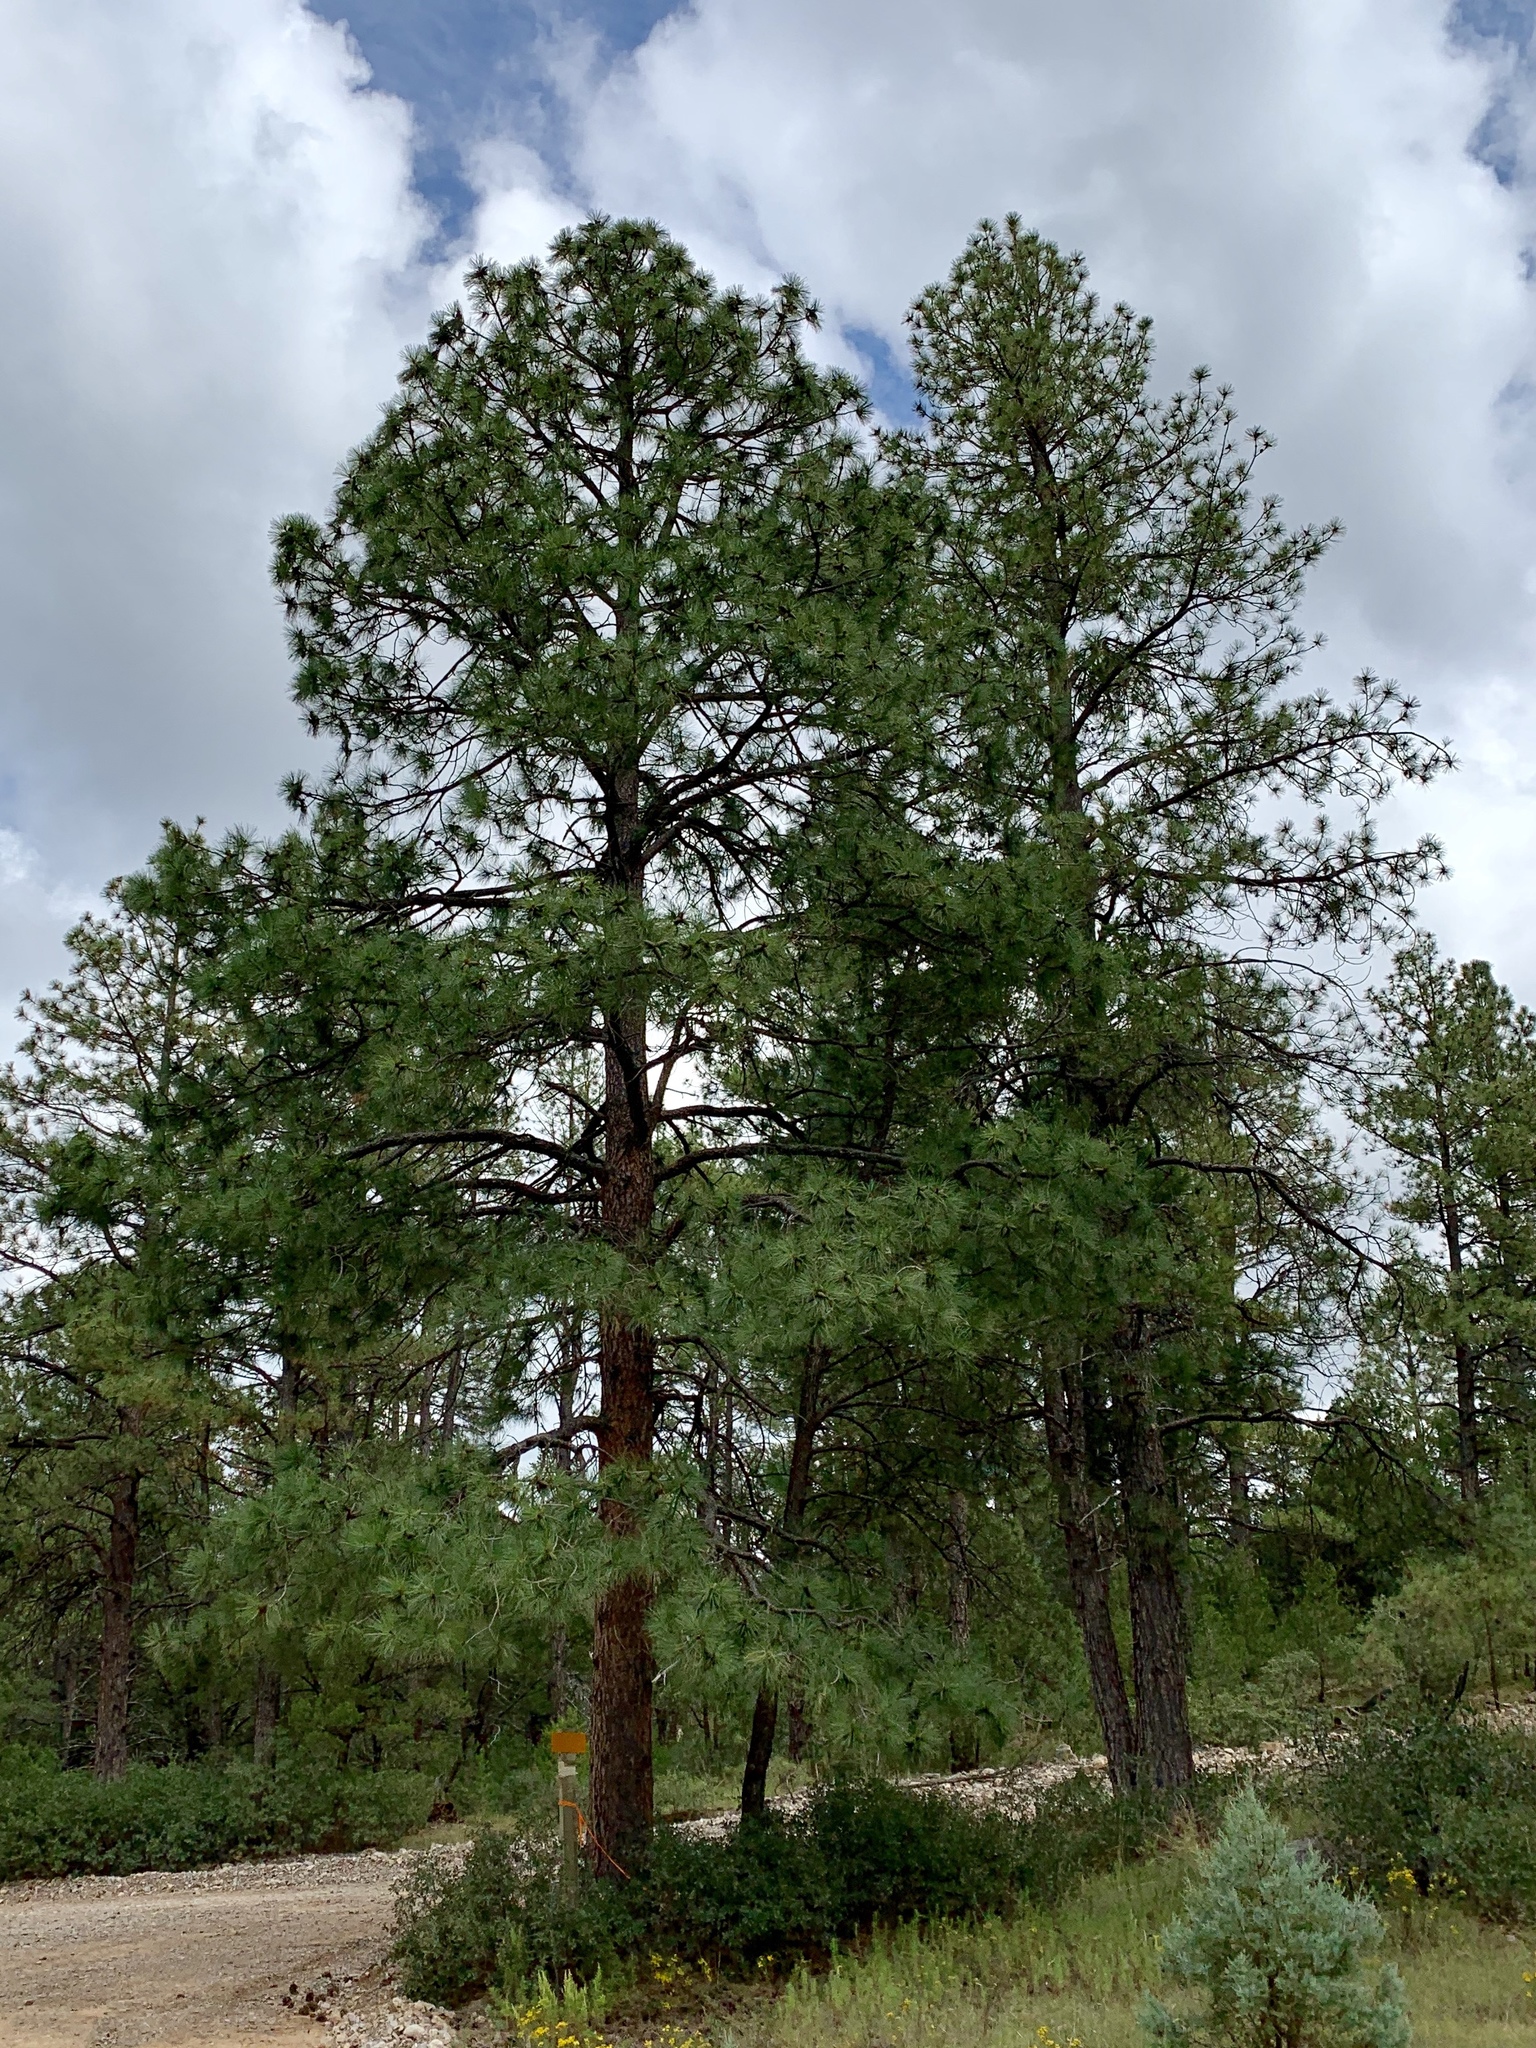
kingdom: Plantae
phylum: Tracheophyta
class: Pinopsida
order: Pinales
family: Pinaceae
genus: Pinus
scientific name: Pinus ponderosa
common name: Western yellow-pine
